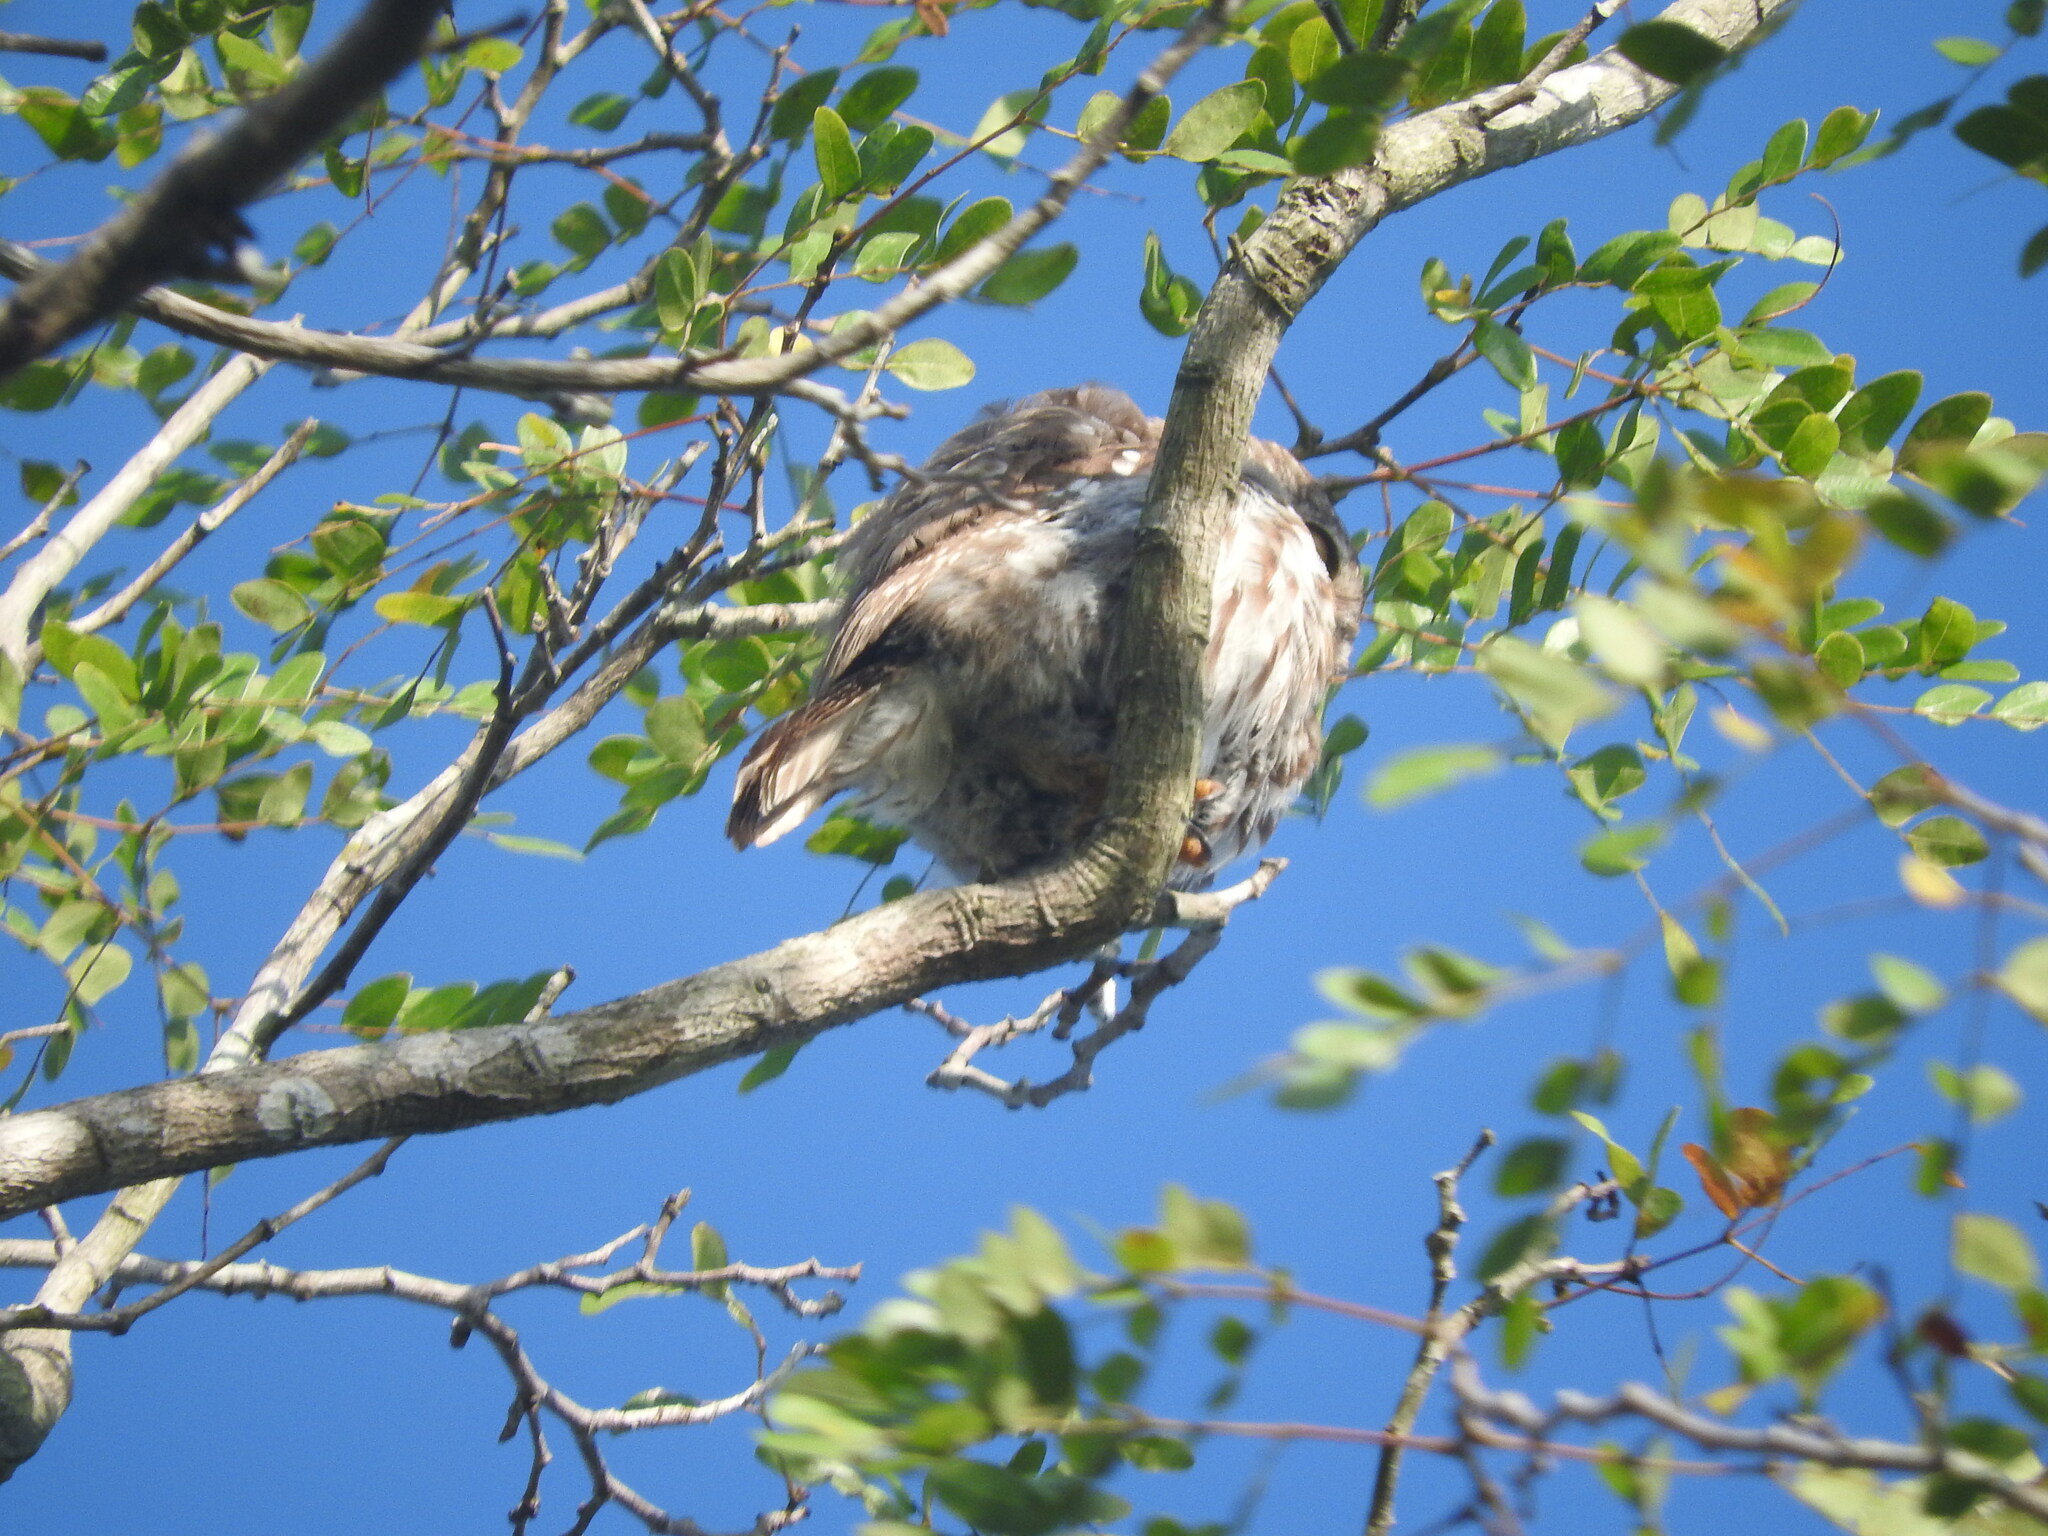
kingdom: Animalia
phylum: Chordata
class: Aves
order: Strigiformes
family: Strigidae
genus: Glaucidium
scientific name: Glaucidium brasilianum
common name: Ferruginous pygmy-owl
